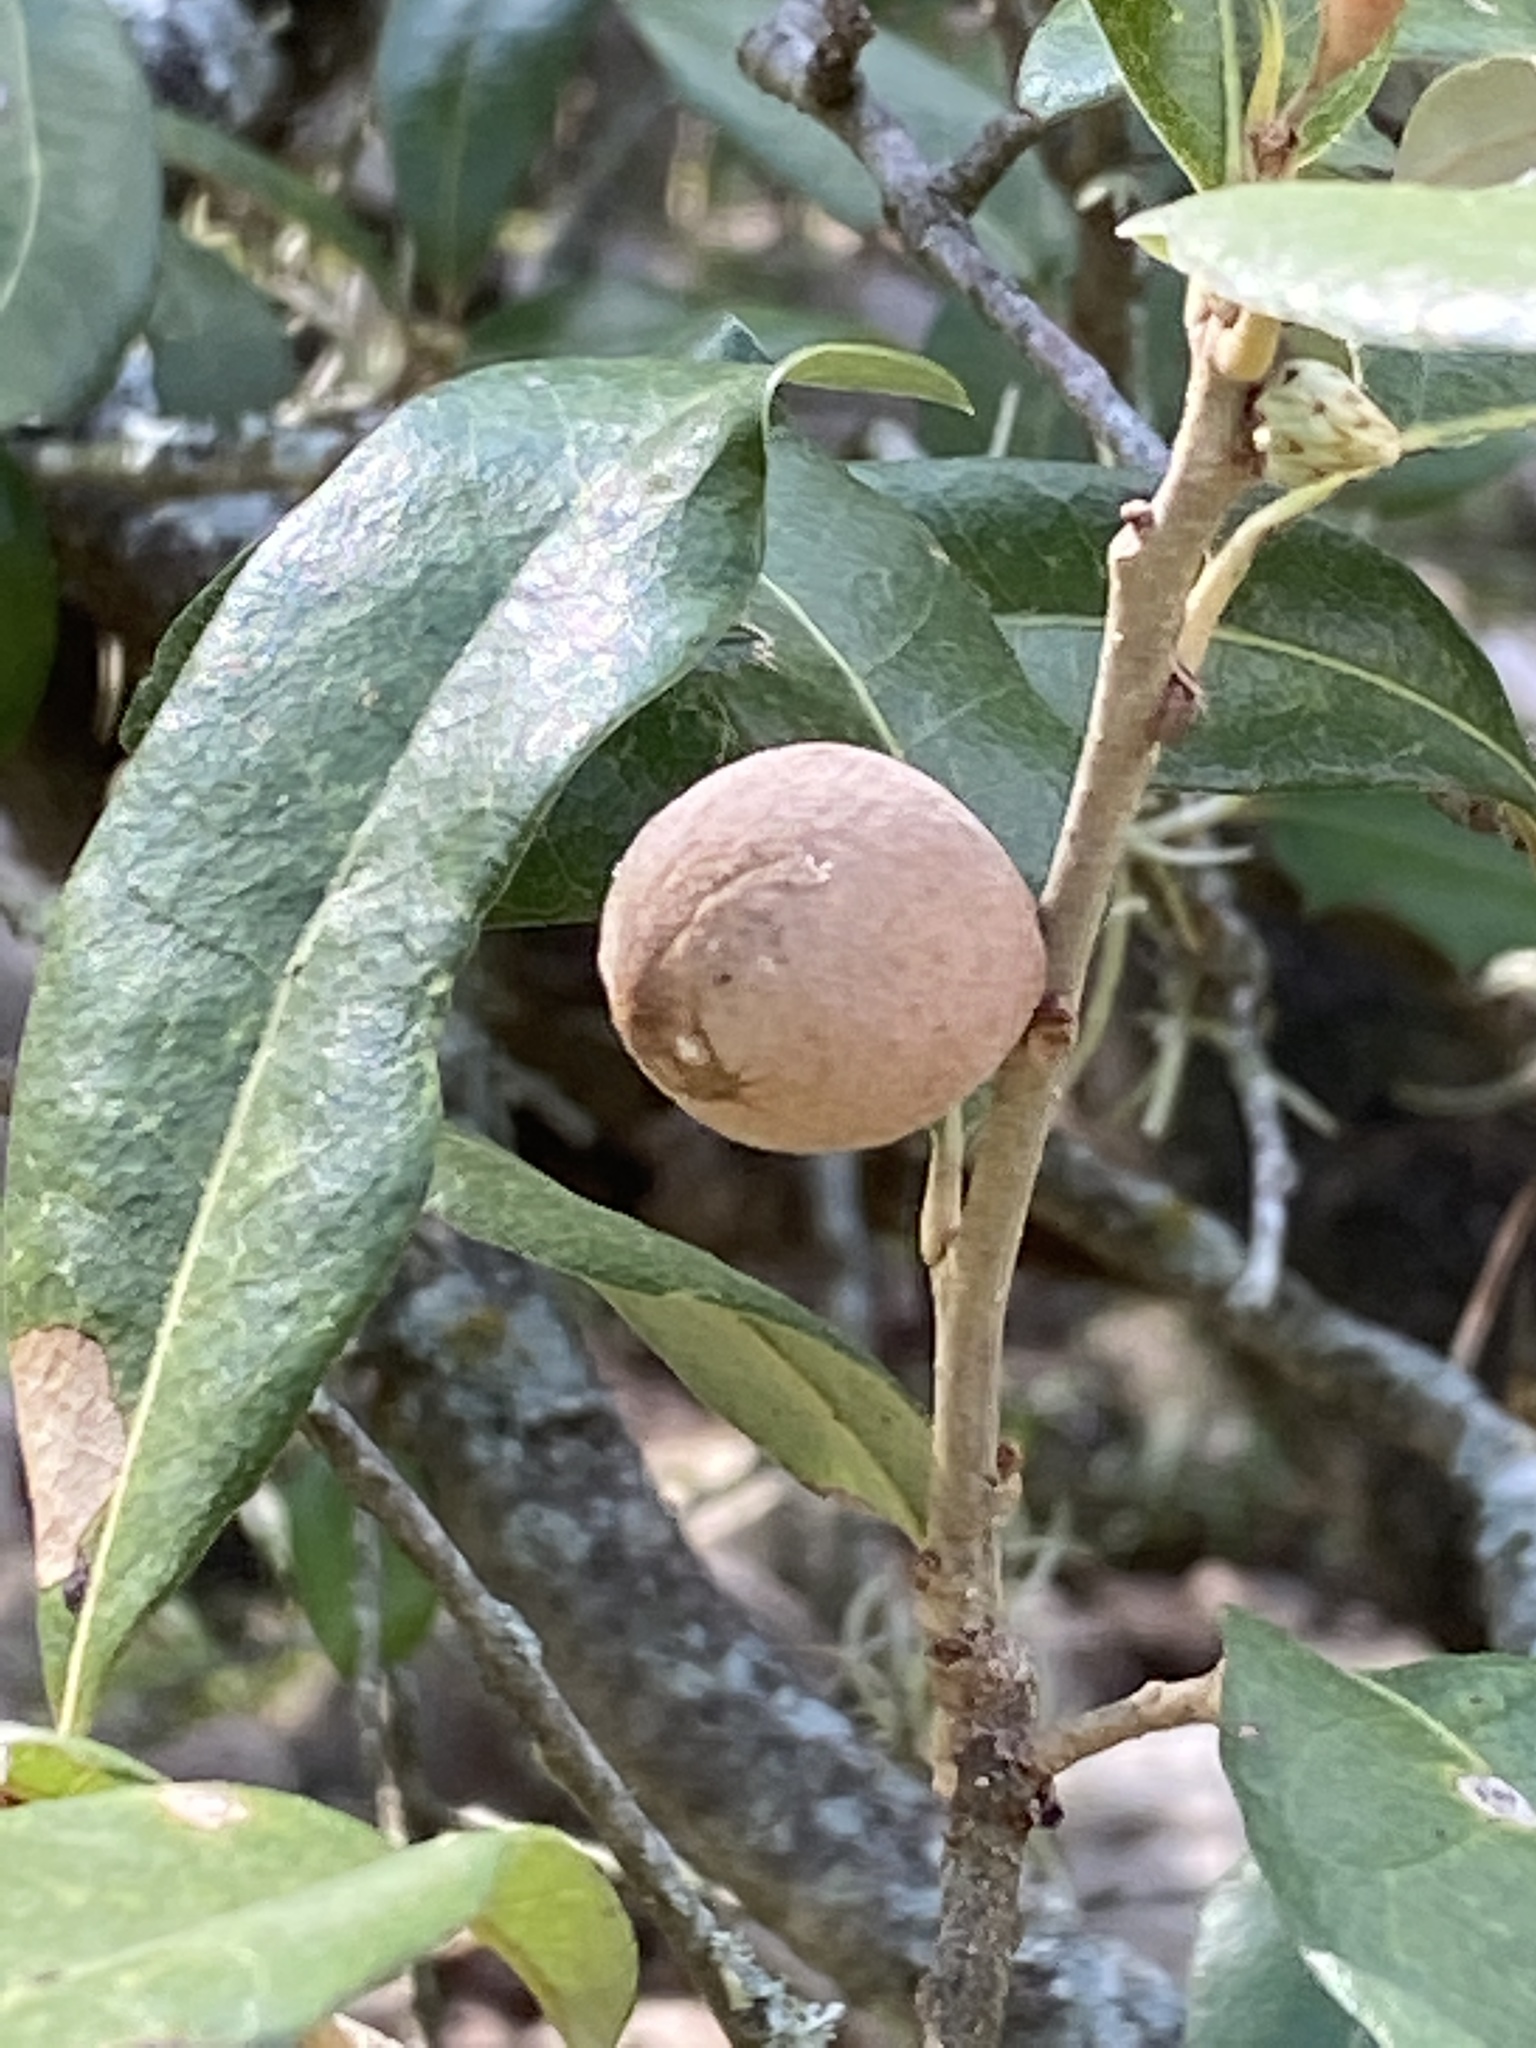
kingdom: Animalia
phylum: Arthropoda
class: Insecta
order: Hymenoptera
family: Cynipidae
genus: Disholcaspis
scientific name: Disholcaspis
